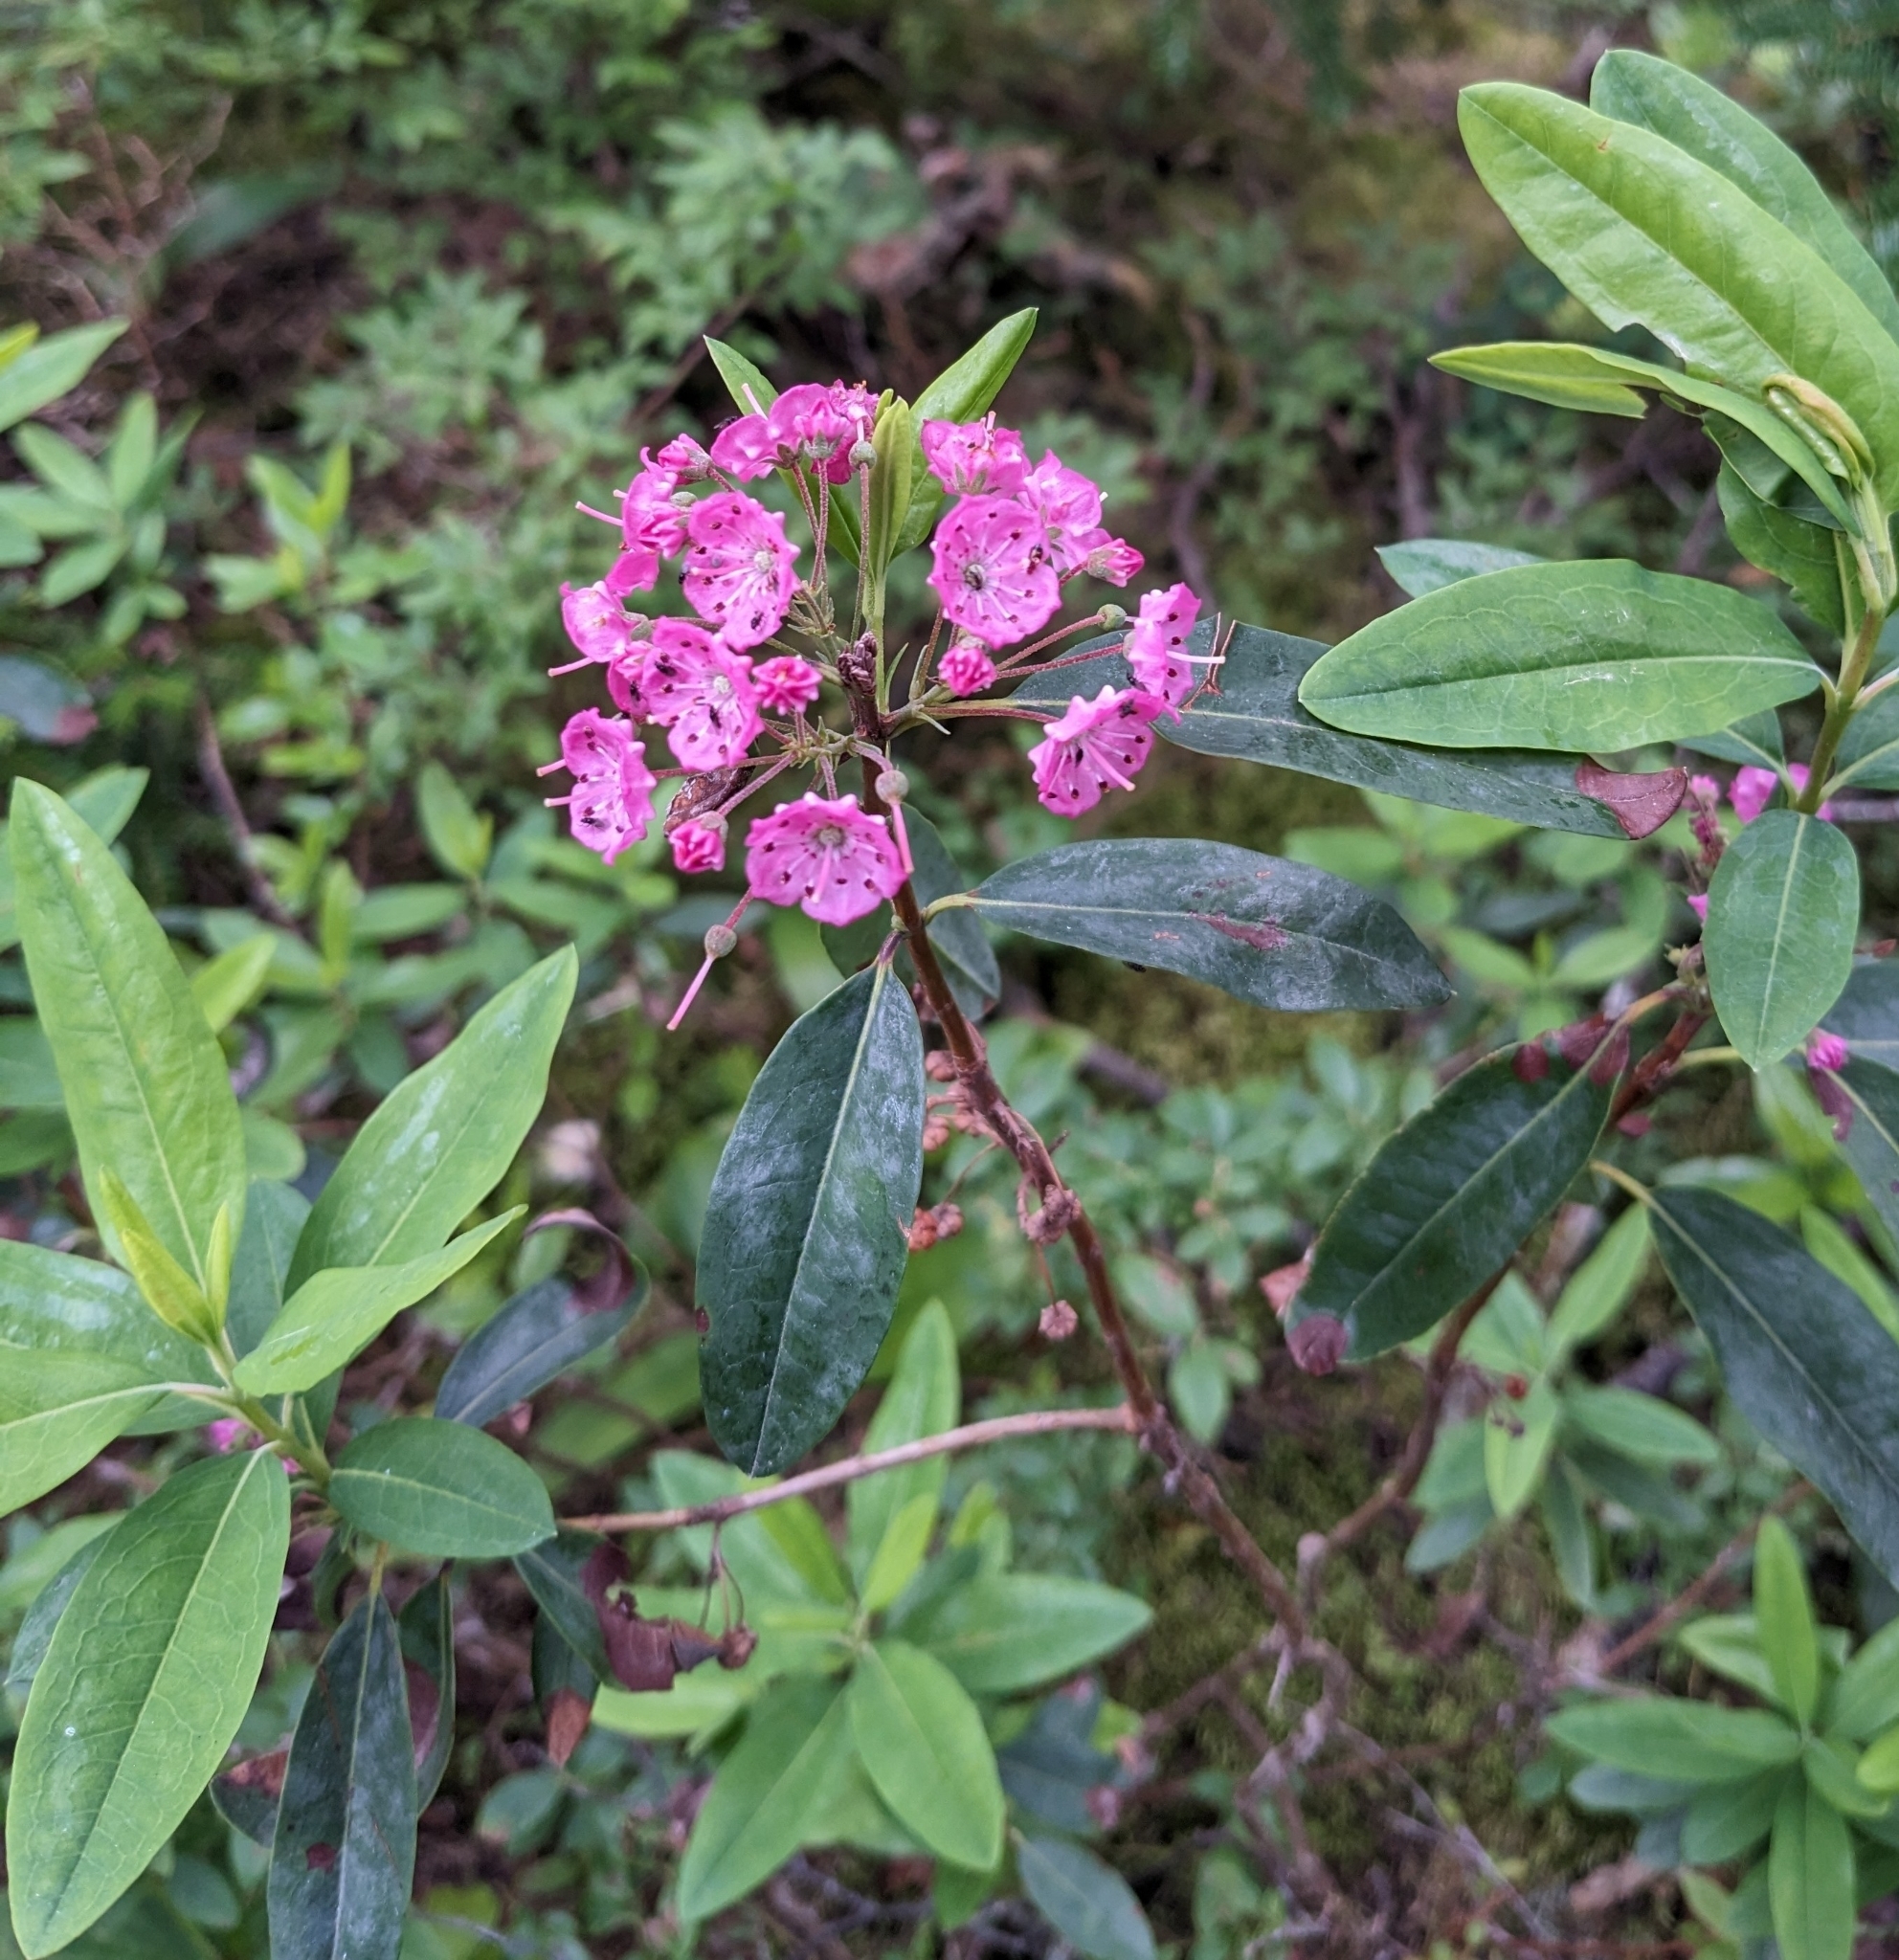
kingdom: Plantae
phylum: Tracheophyta
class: Magnoliopsida
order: Ericales
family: Ericaceae
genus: Kalmia
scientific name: Kalmia angustifolia
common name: Sheep-laurel
